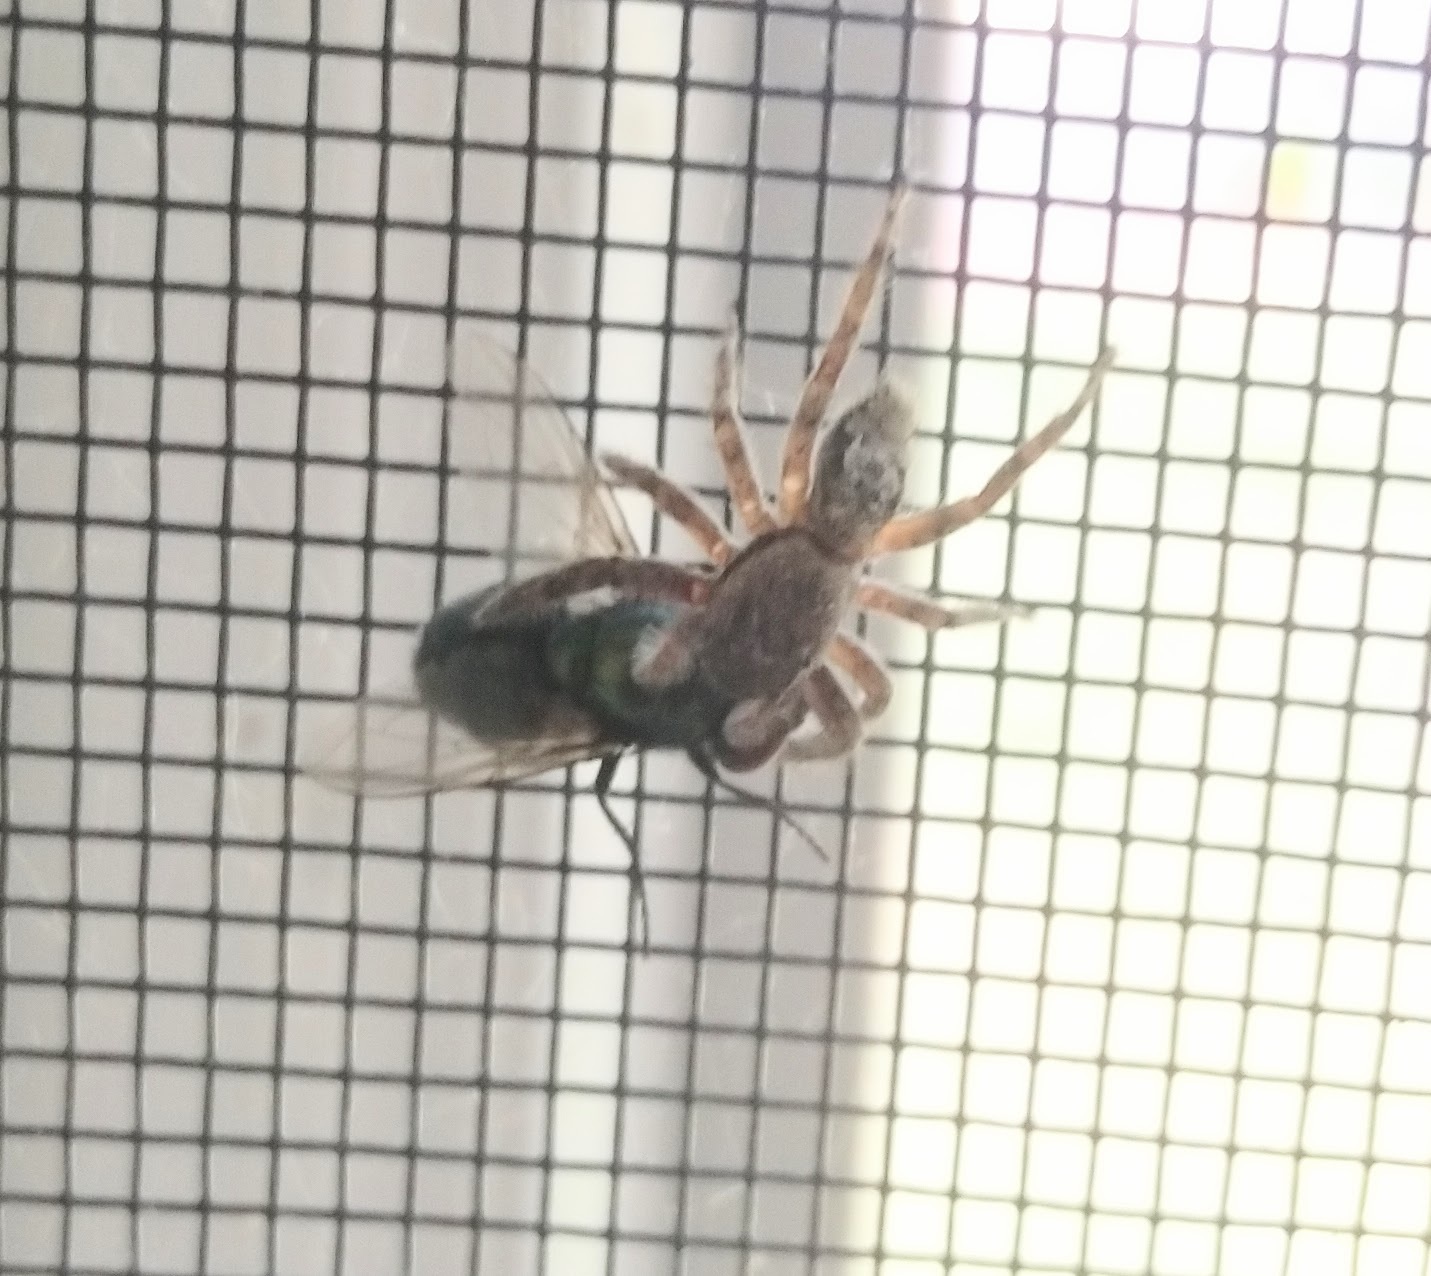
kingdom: Animalia
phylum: Arthropoda
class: Arachnida
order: Araneae
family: Salticidae
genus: Platycryptus
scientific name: Platycryptus undatus
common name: Tan jumping spider
